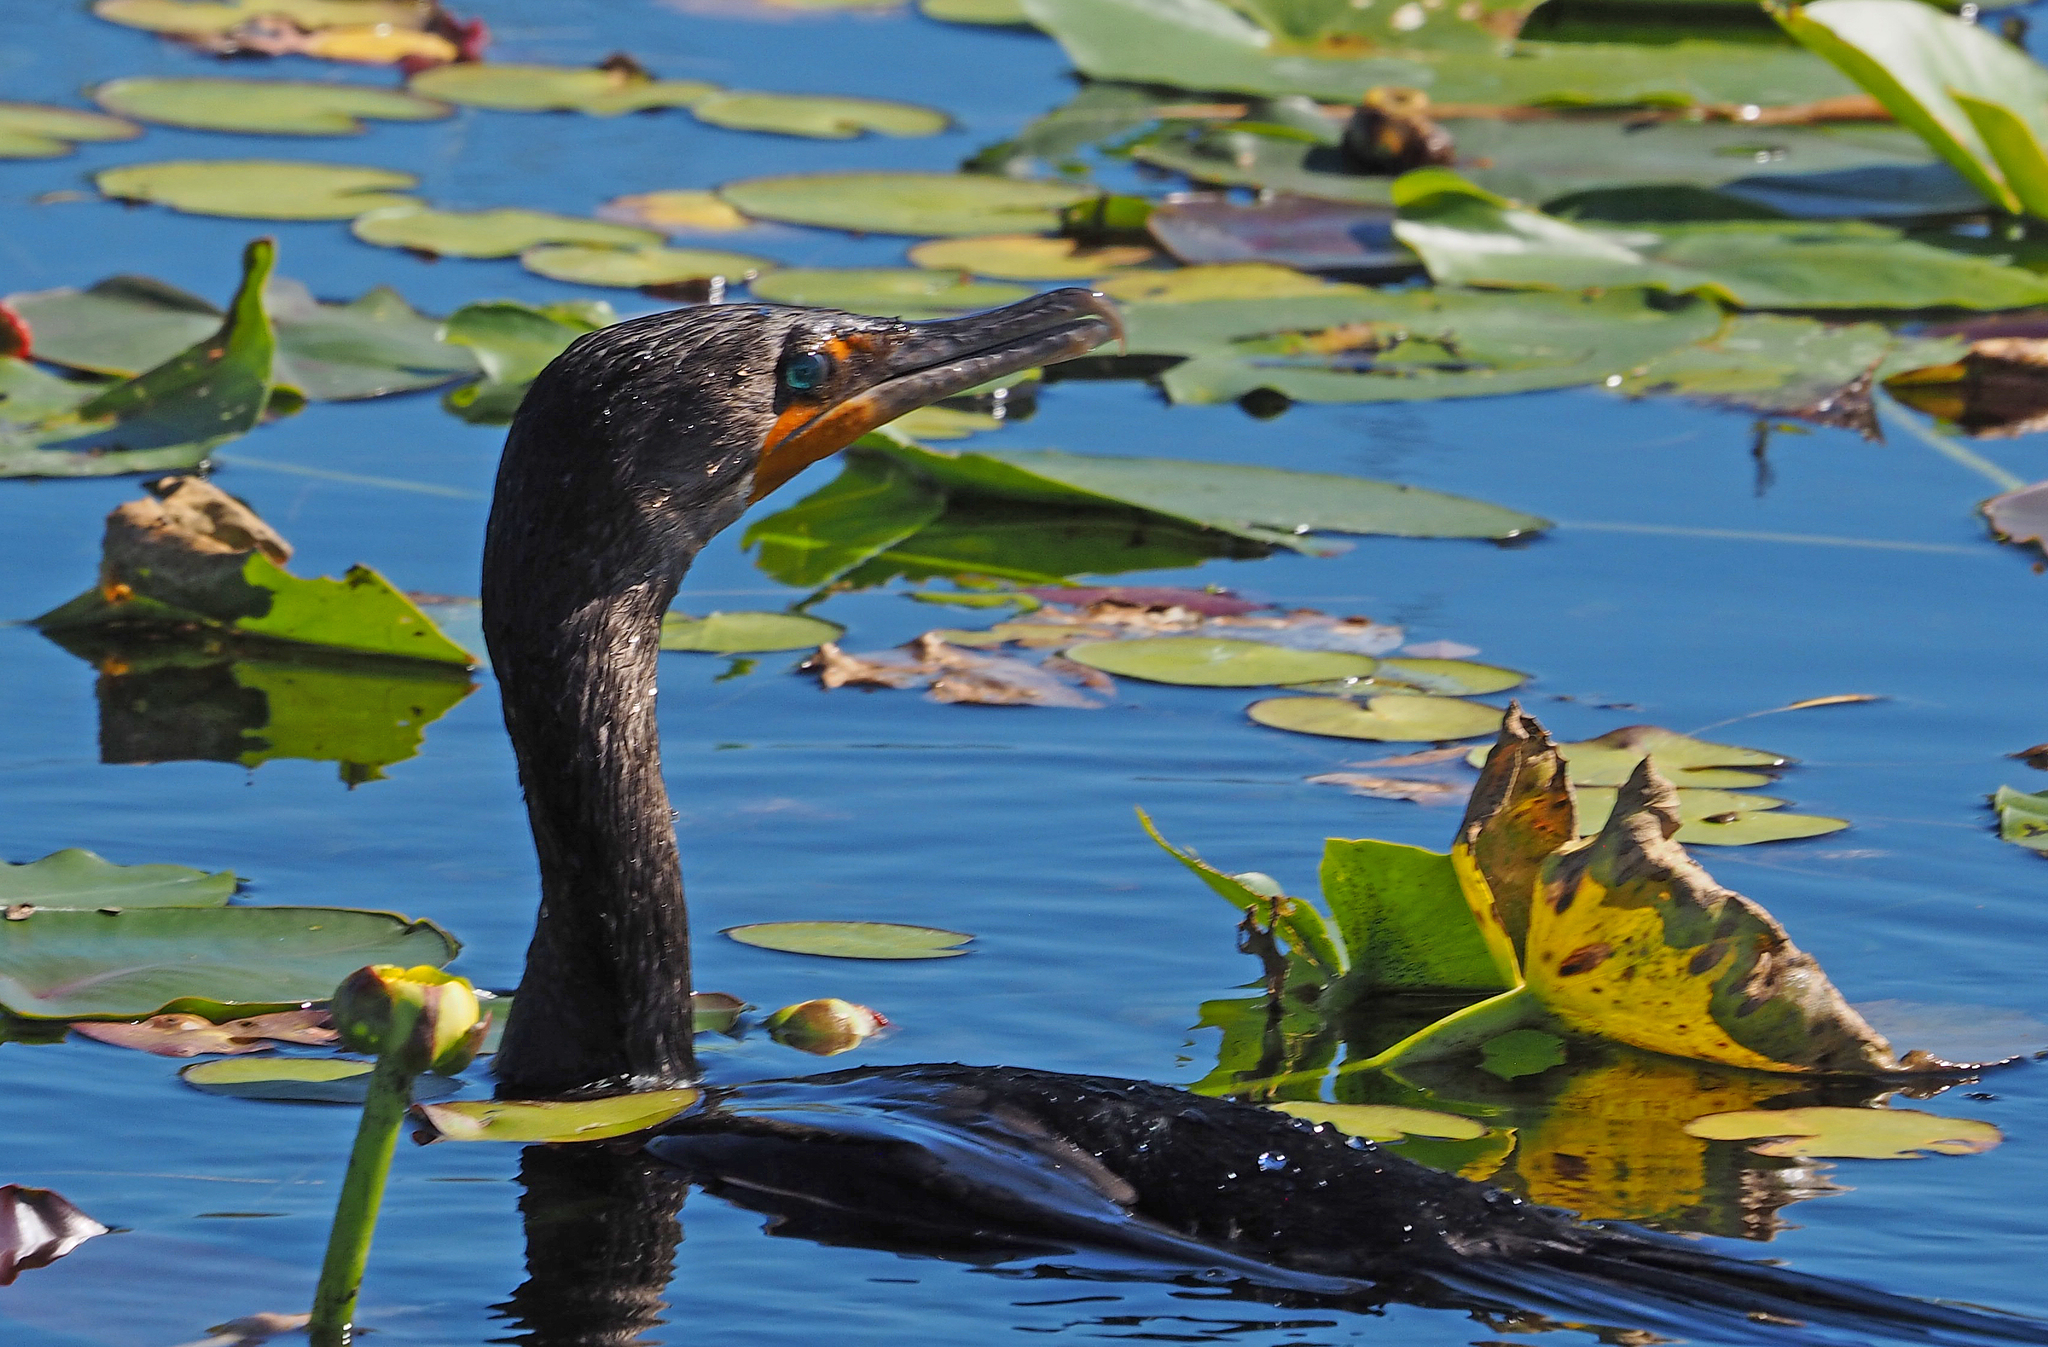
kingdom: Animalia
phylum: Chordata
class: Aves
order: Suliformes
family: Phalacrocoracidae
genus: Phalacrocorax
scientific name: Phalacrocorax auritus
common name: Double-crested cormorant
